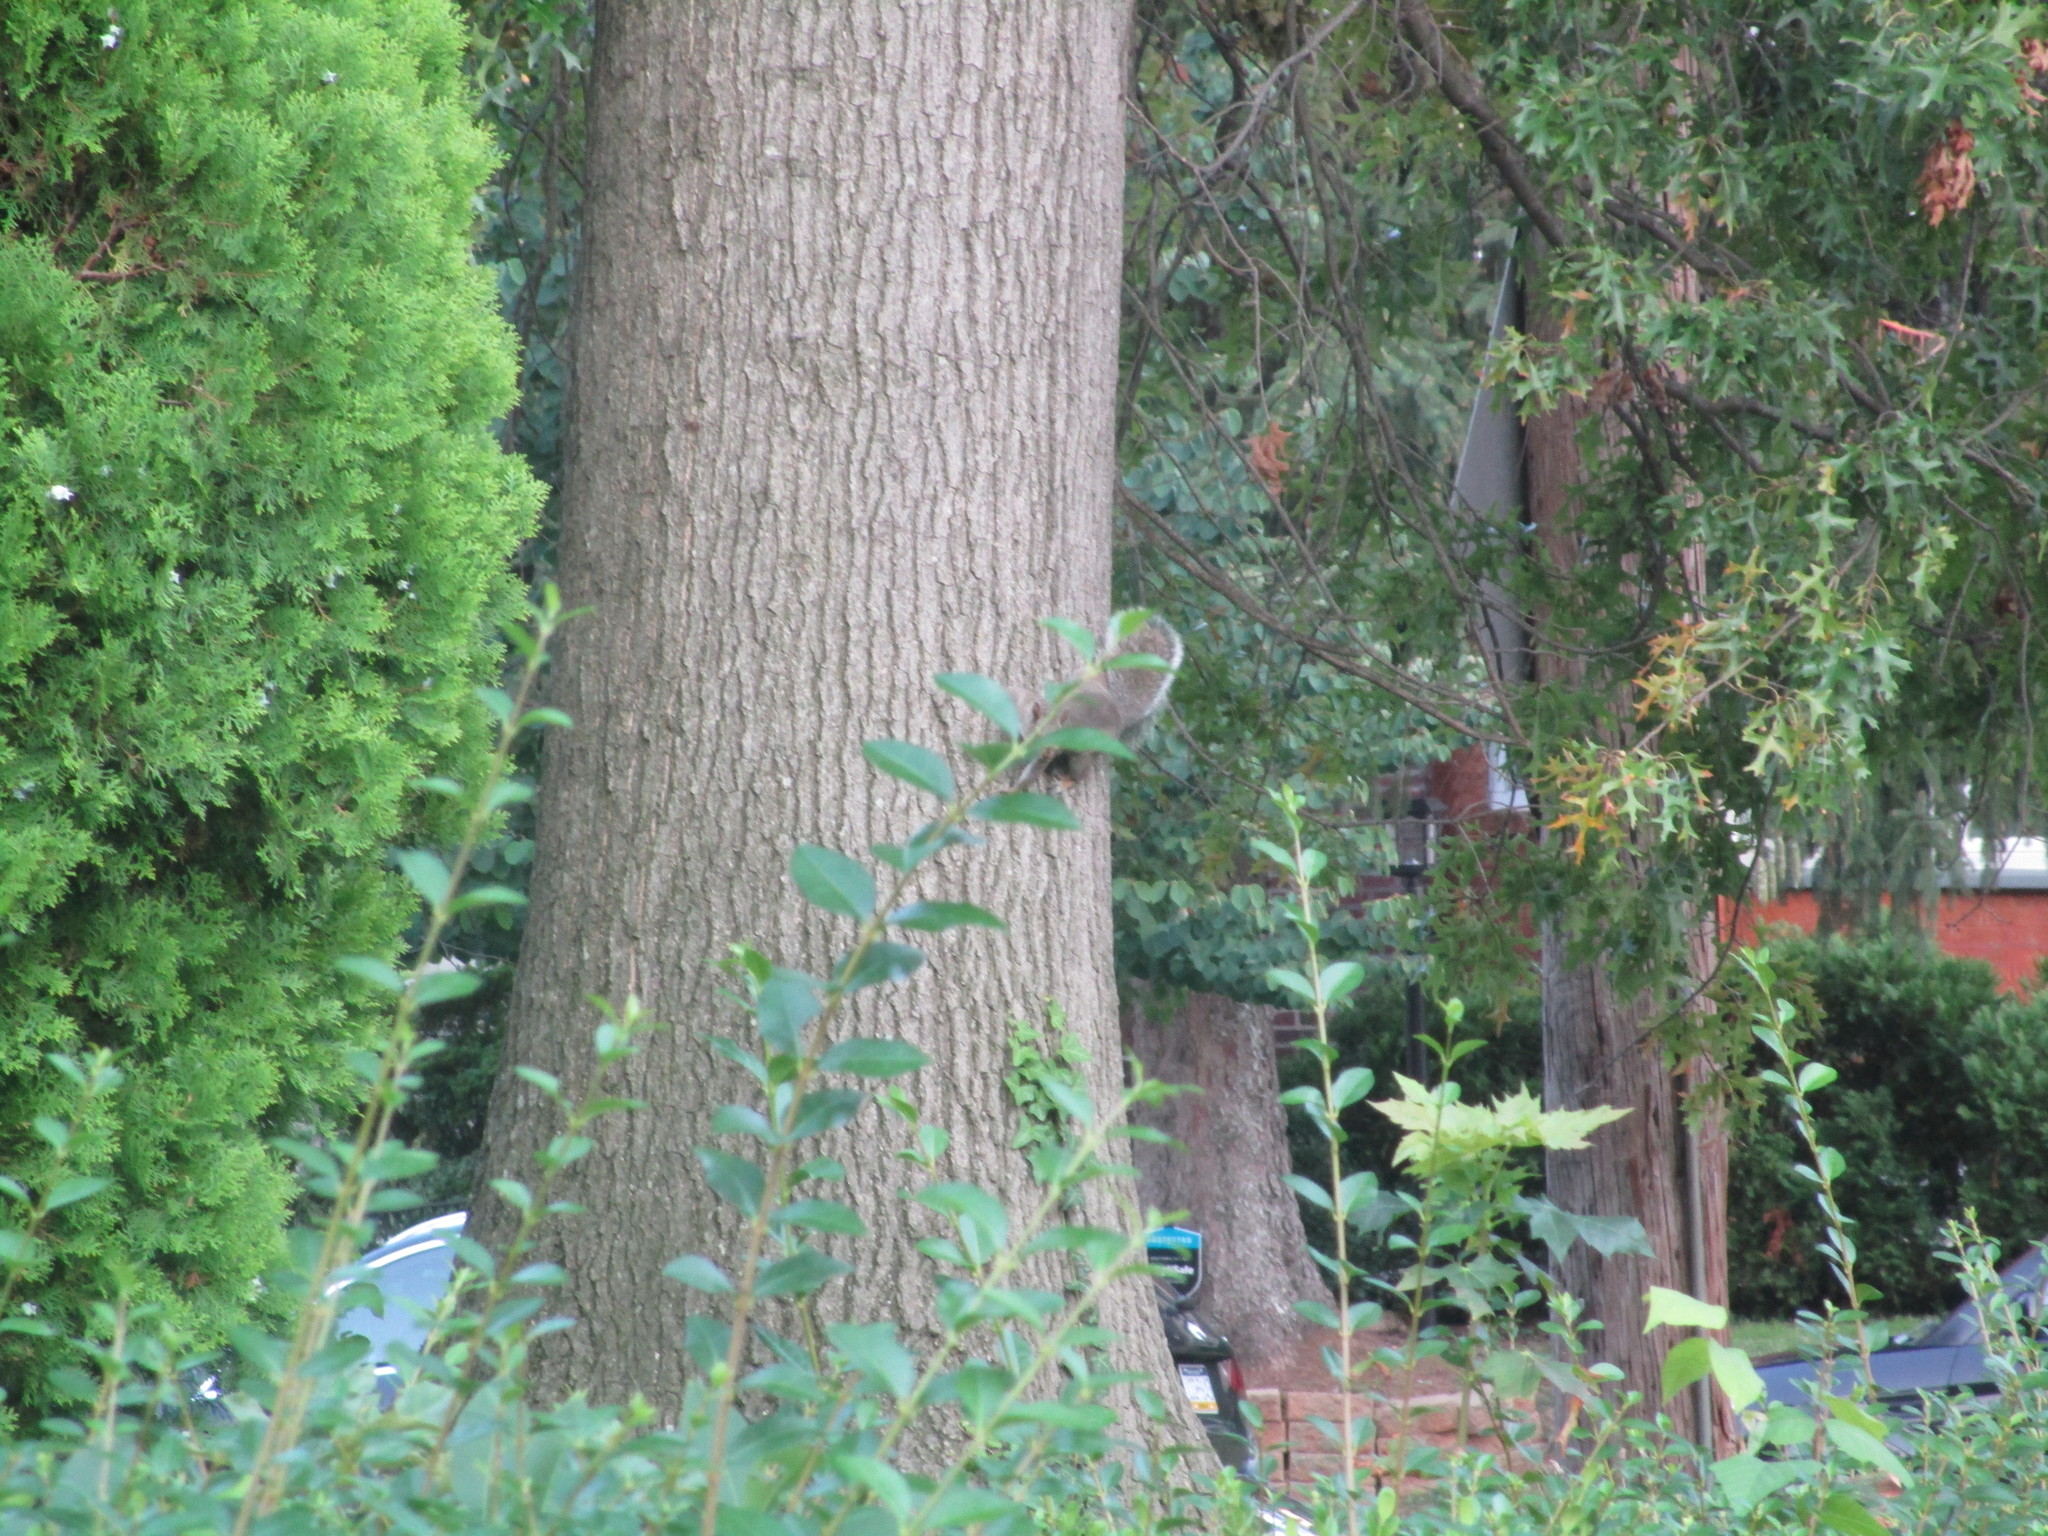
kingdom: Animalia
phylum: Chordata
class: Mammalia
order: Rodentia
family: Sciuridae
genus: Sciurus
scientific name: Sciurus carolinensis
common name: Eastern gray squirrel
